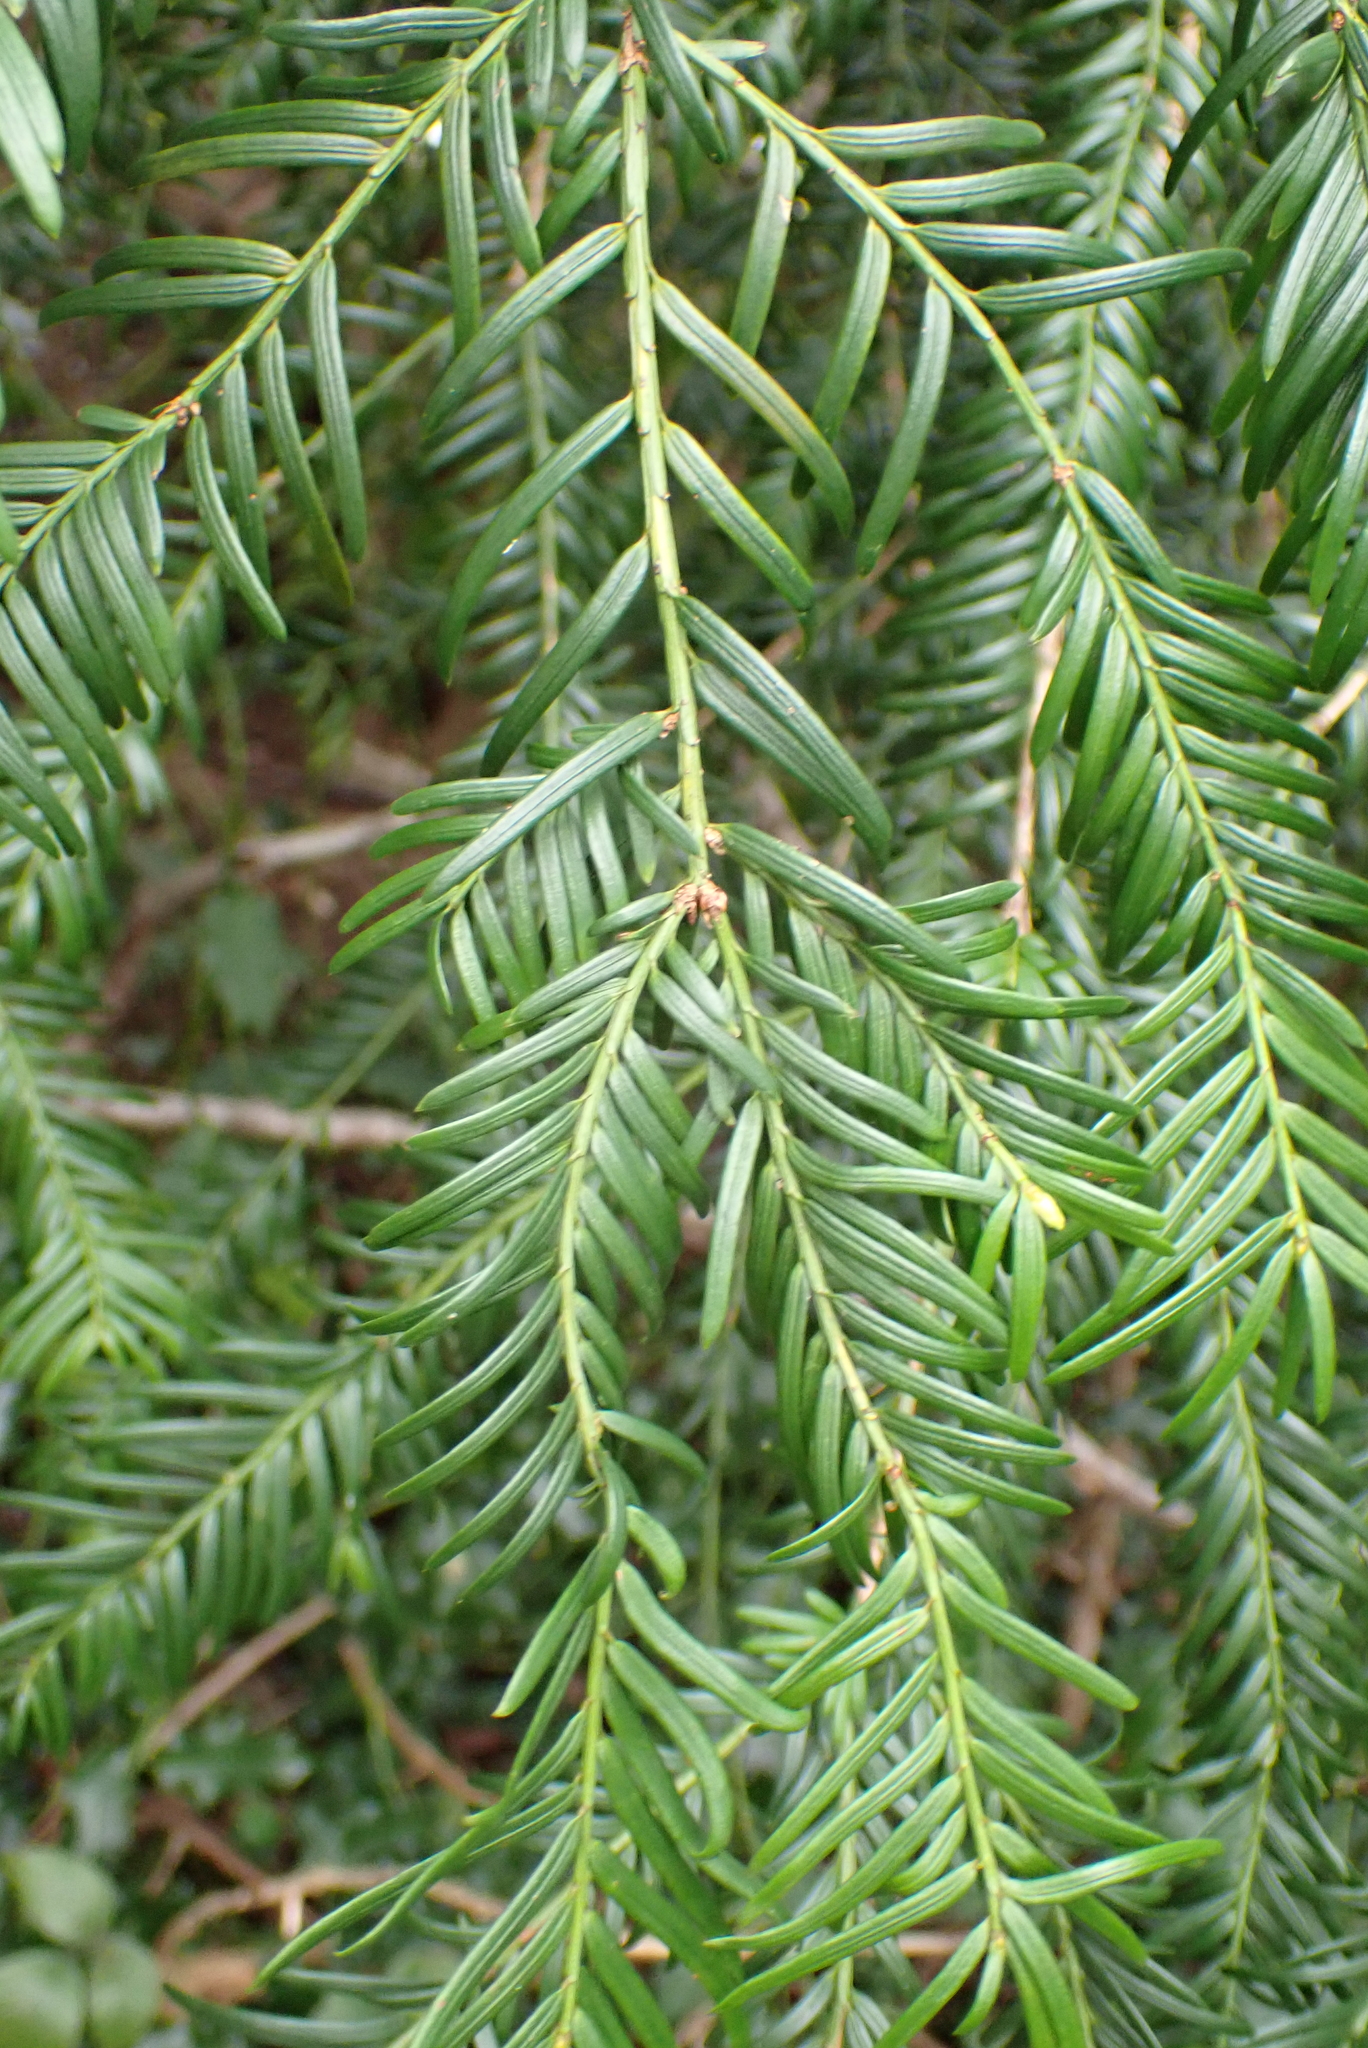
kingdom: Plantae
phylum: Tracheophyta
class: Pinopsida
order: Pinales
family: Taxaceae
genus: Taxus
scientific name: Taxus baccata
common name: Yew
